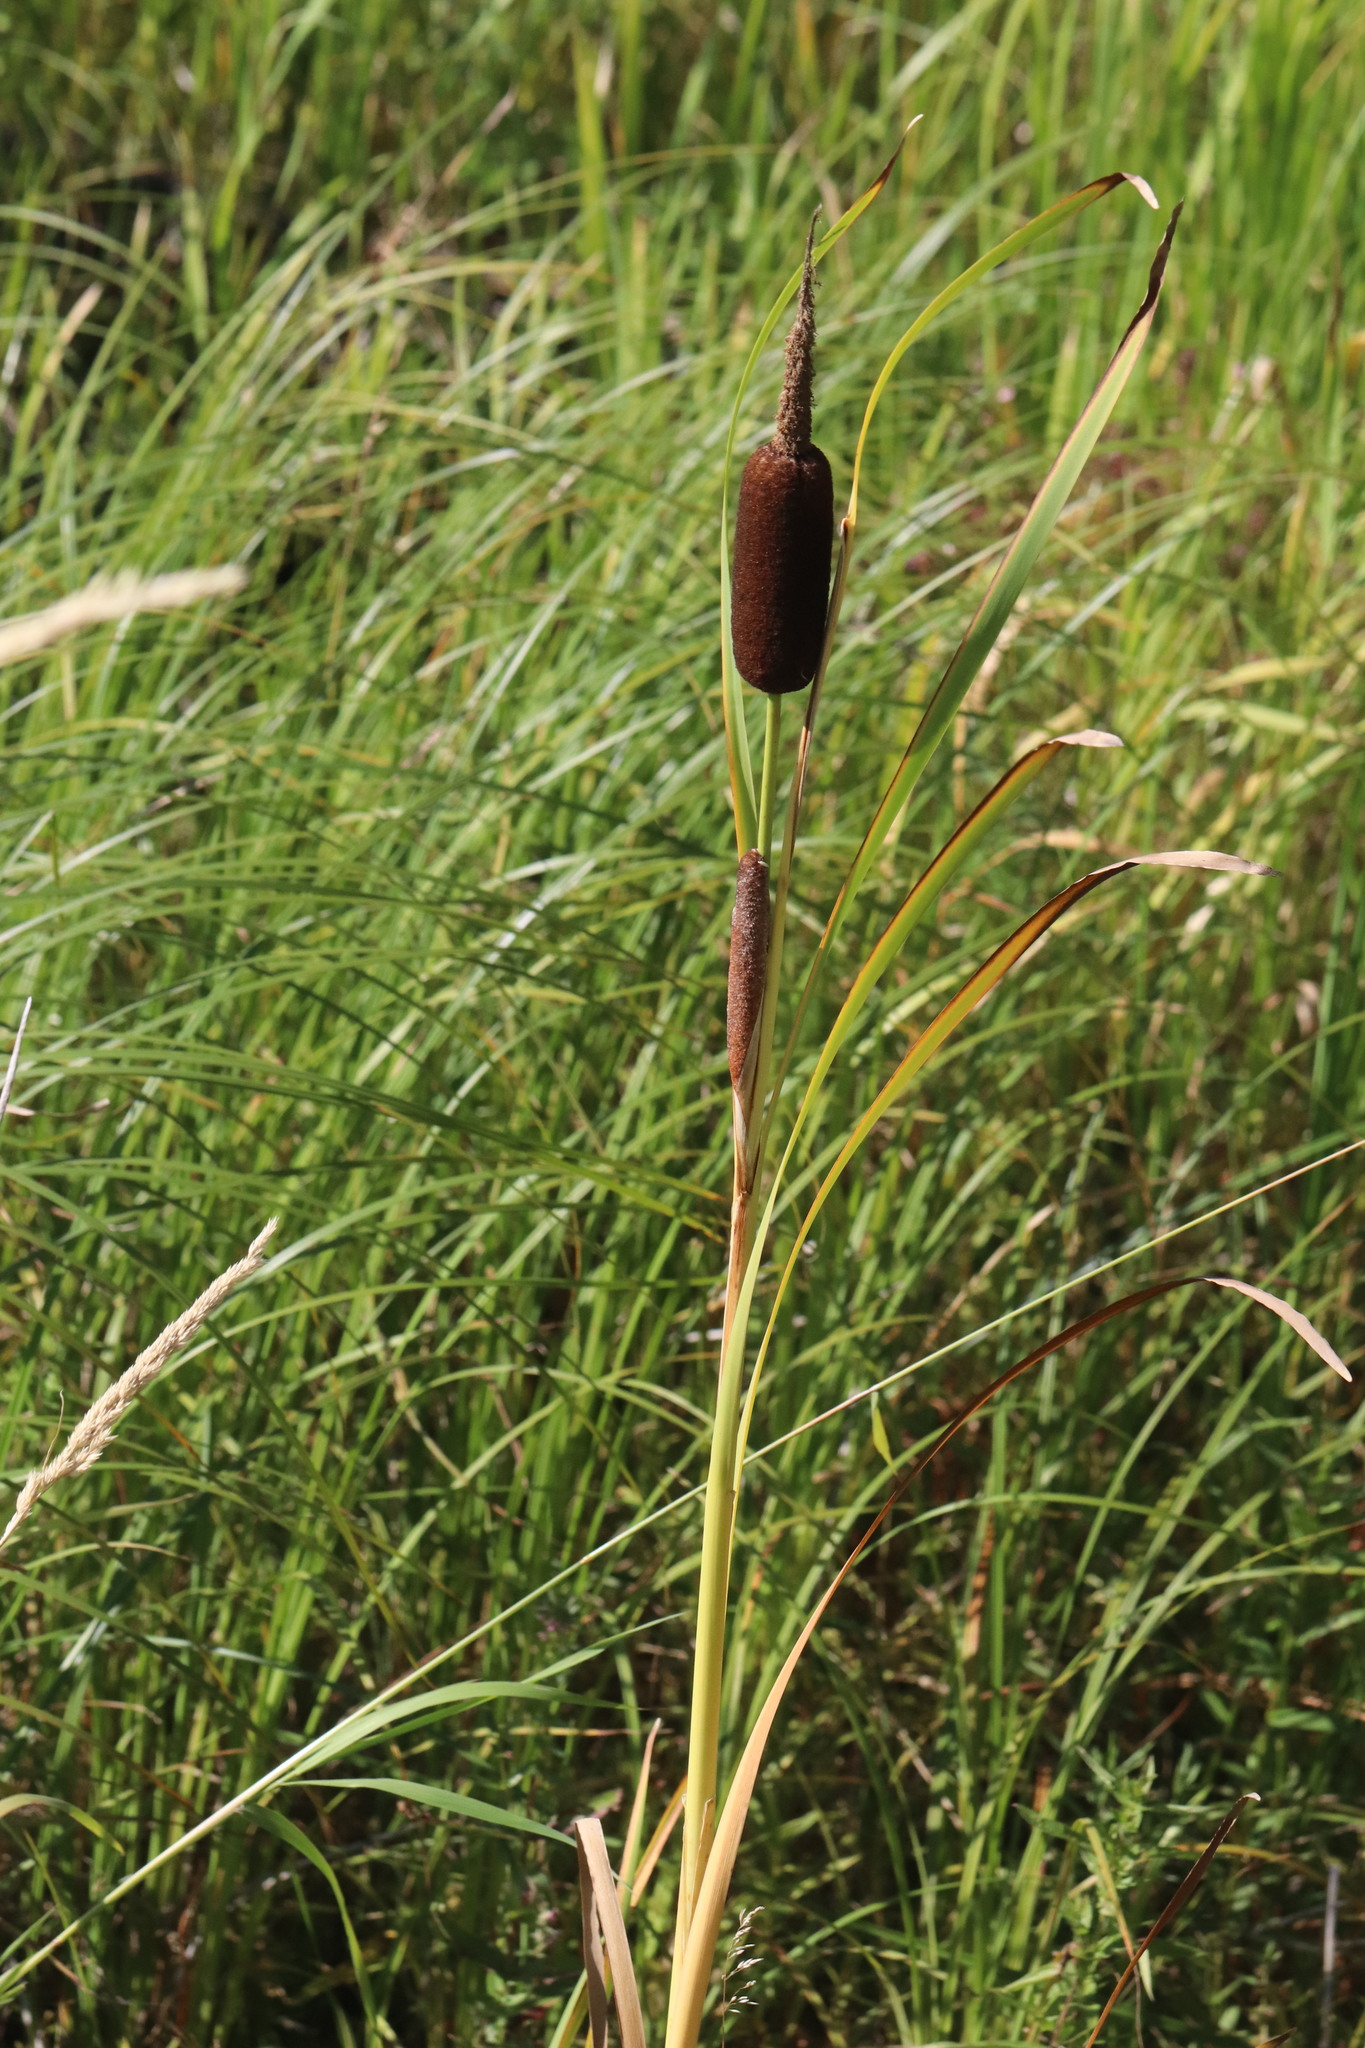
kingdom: Plantae
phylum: Tracheophyta
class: Liliopsida
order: Poales
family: Typhaceae
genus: Typha
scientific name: Typha latifolia
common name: Broadleaf cattail
